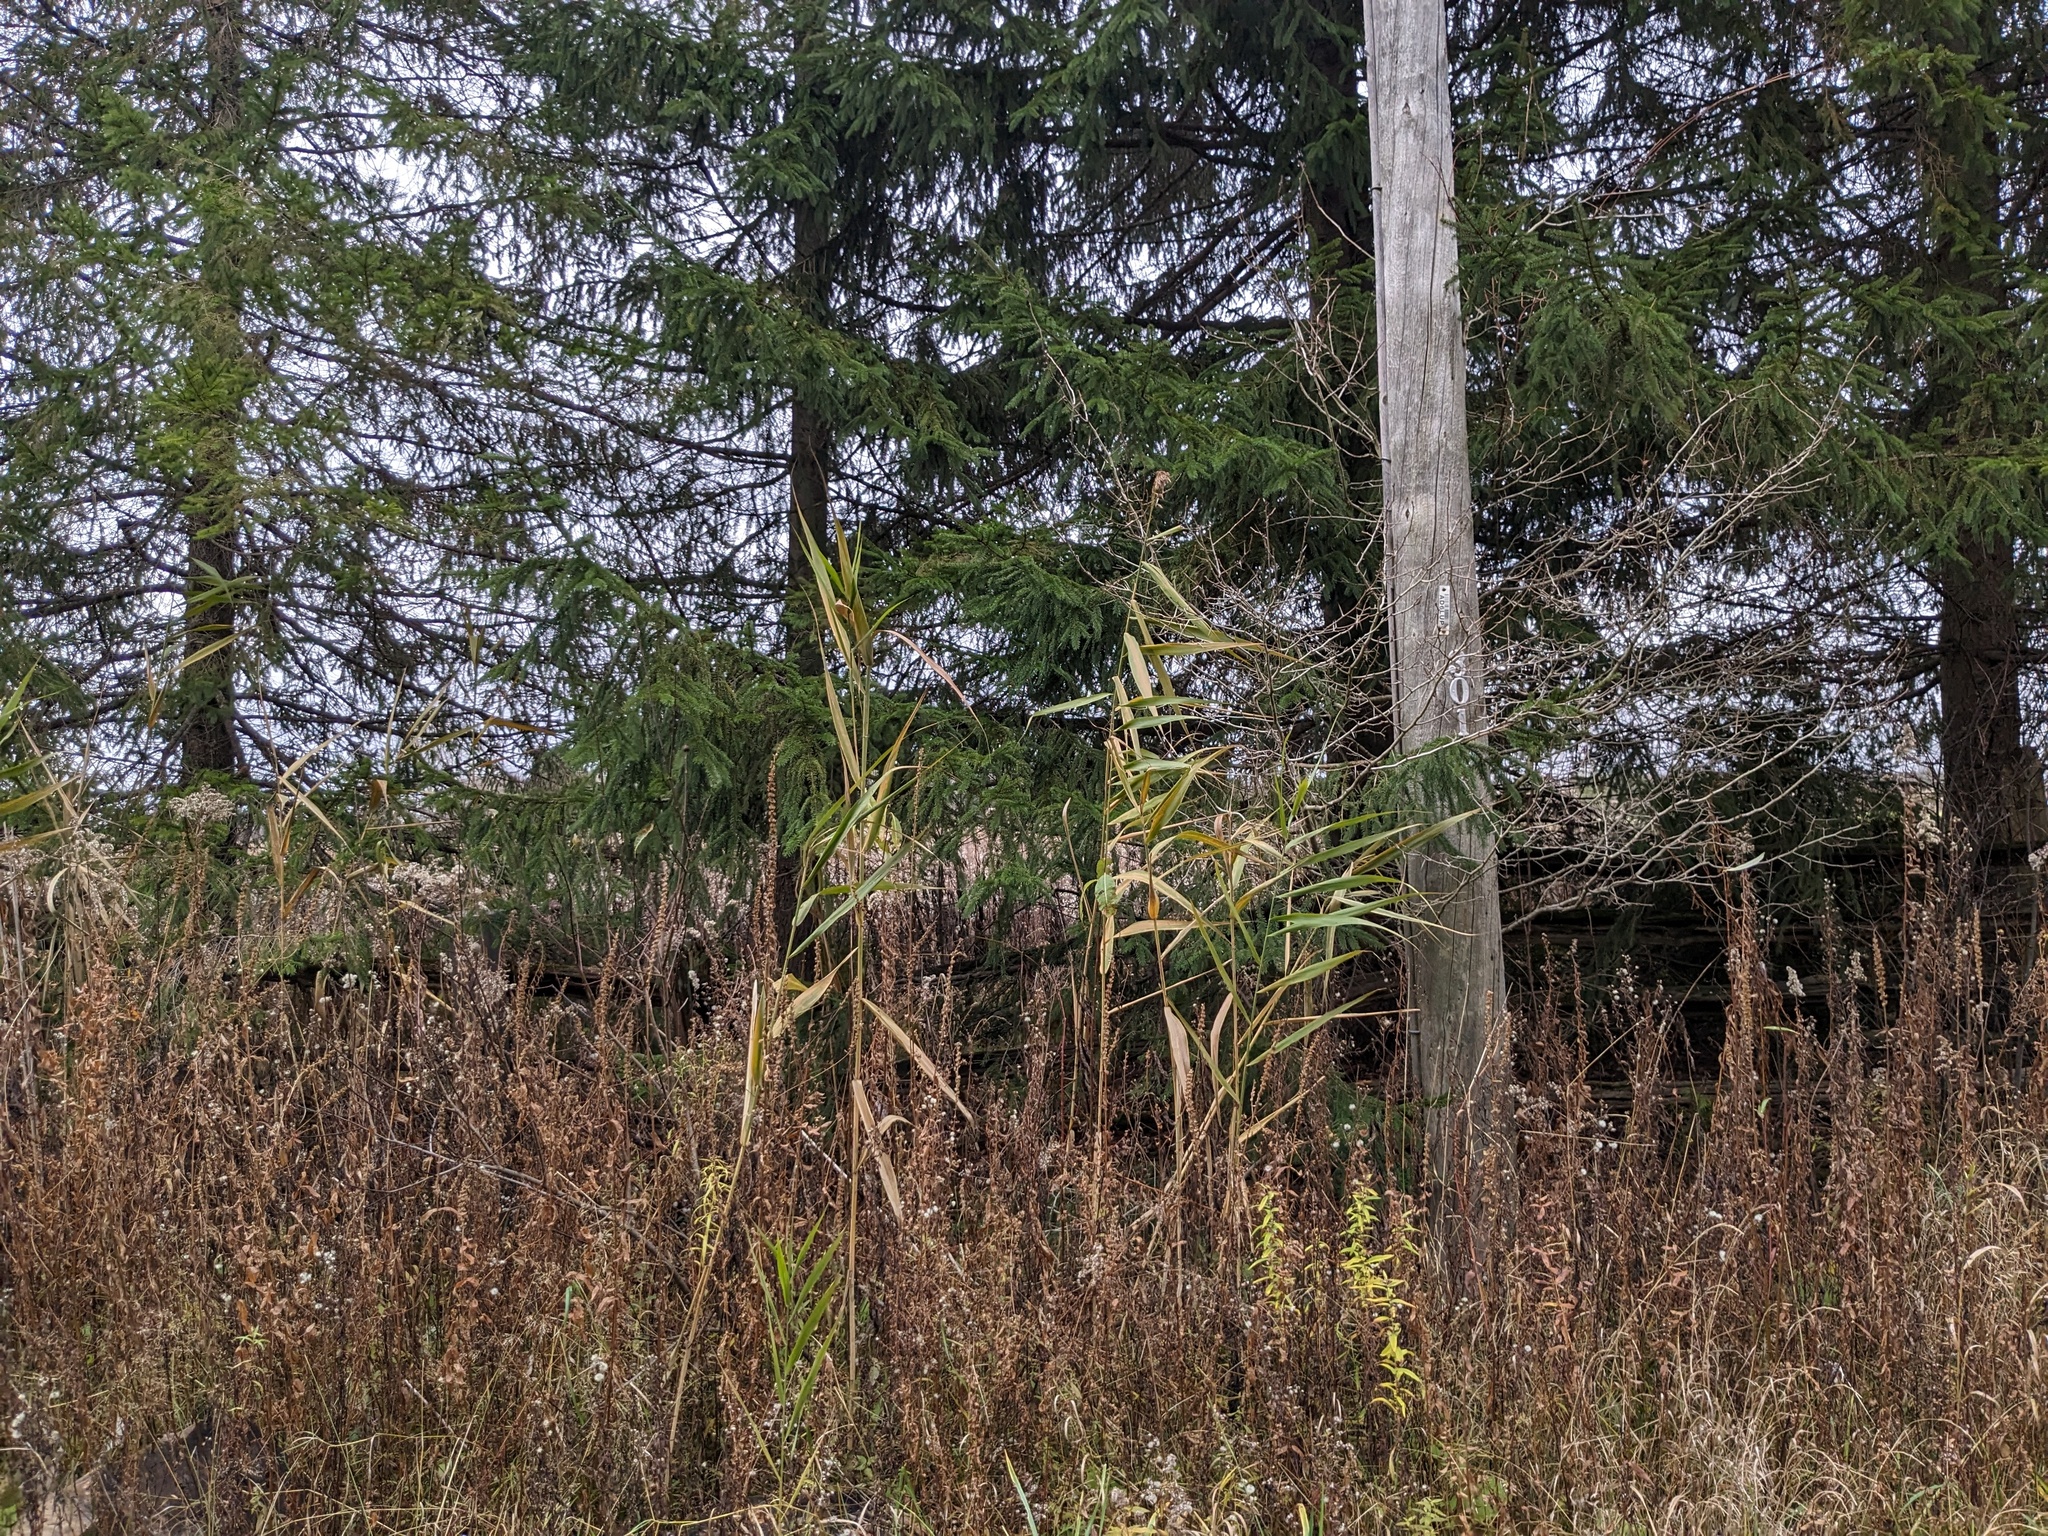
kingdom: Plantae
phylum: Tracheophyta
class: Liliopsida
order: Poales
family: Poaceae
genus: Phragmites
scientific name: Phragmites australis
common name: Common reed
